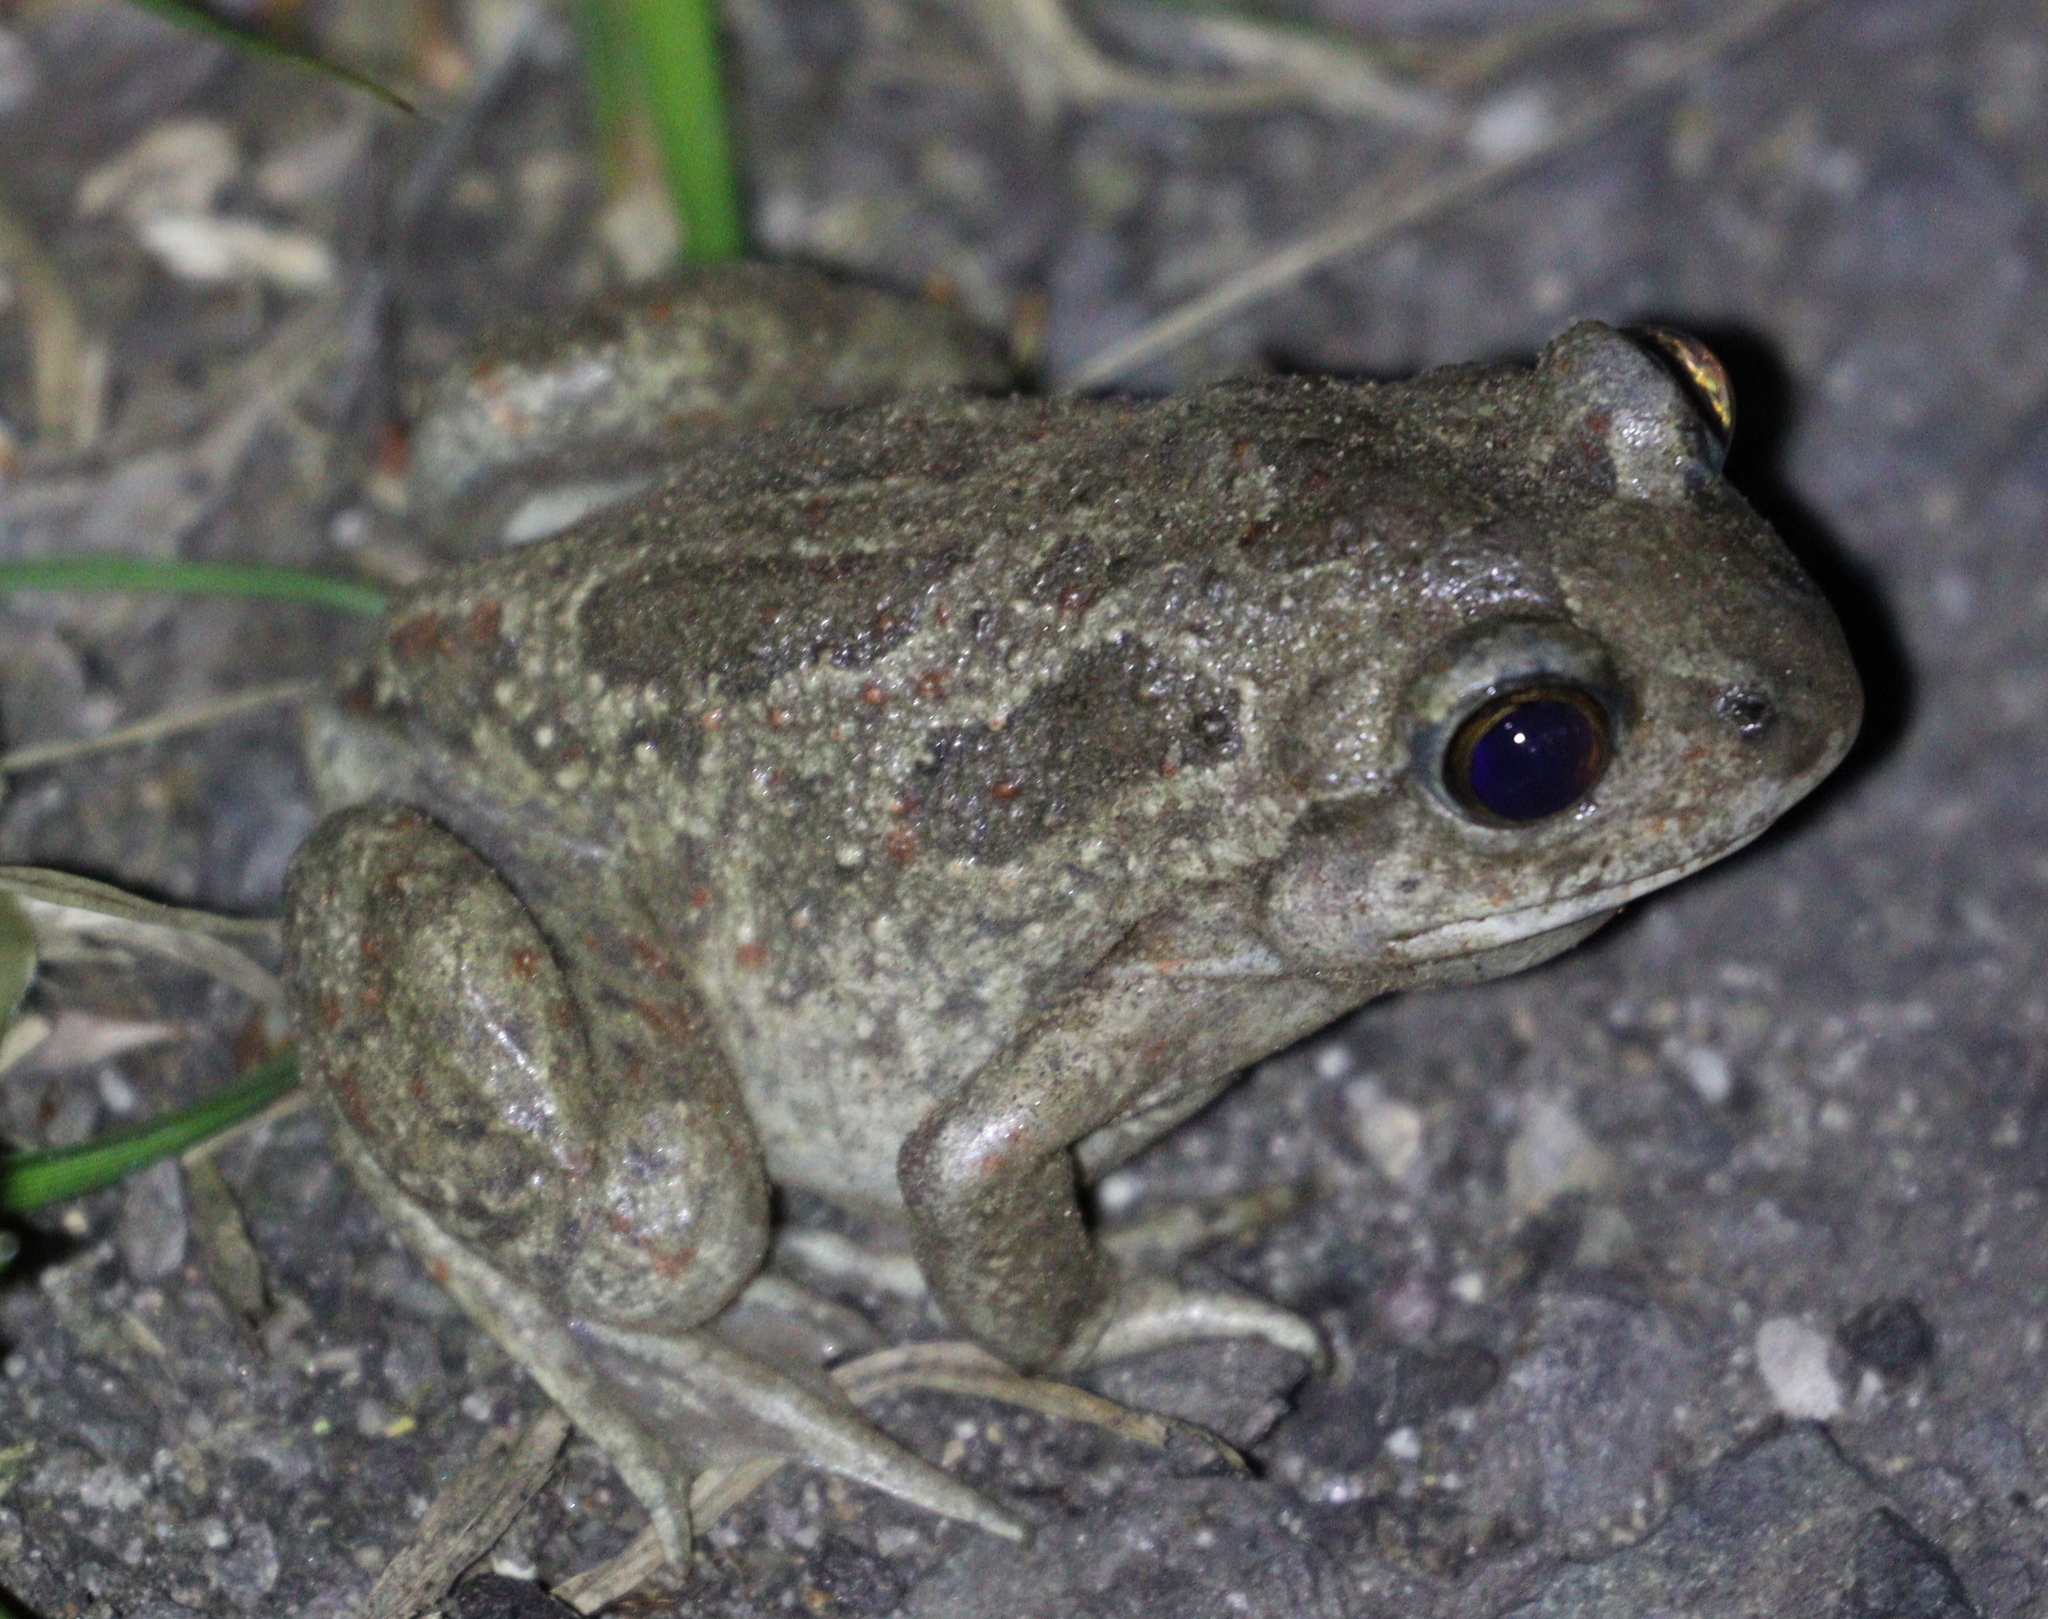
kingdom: Animalia
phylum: Chordata
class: Amphibia
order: Anura
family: Pelobatidae
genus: Pelobates
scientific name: Pelobates fuscus
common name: Common eurasian spadefoot toad
